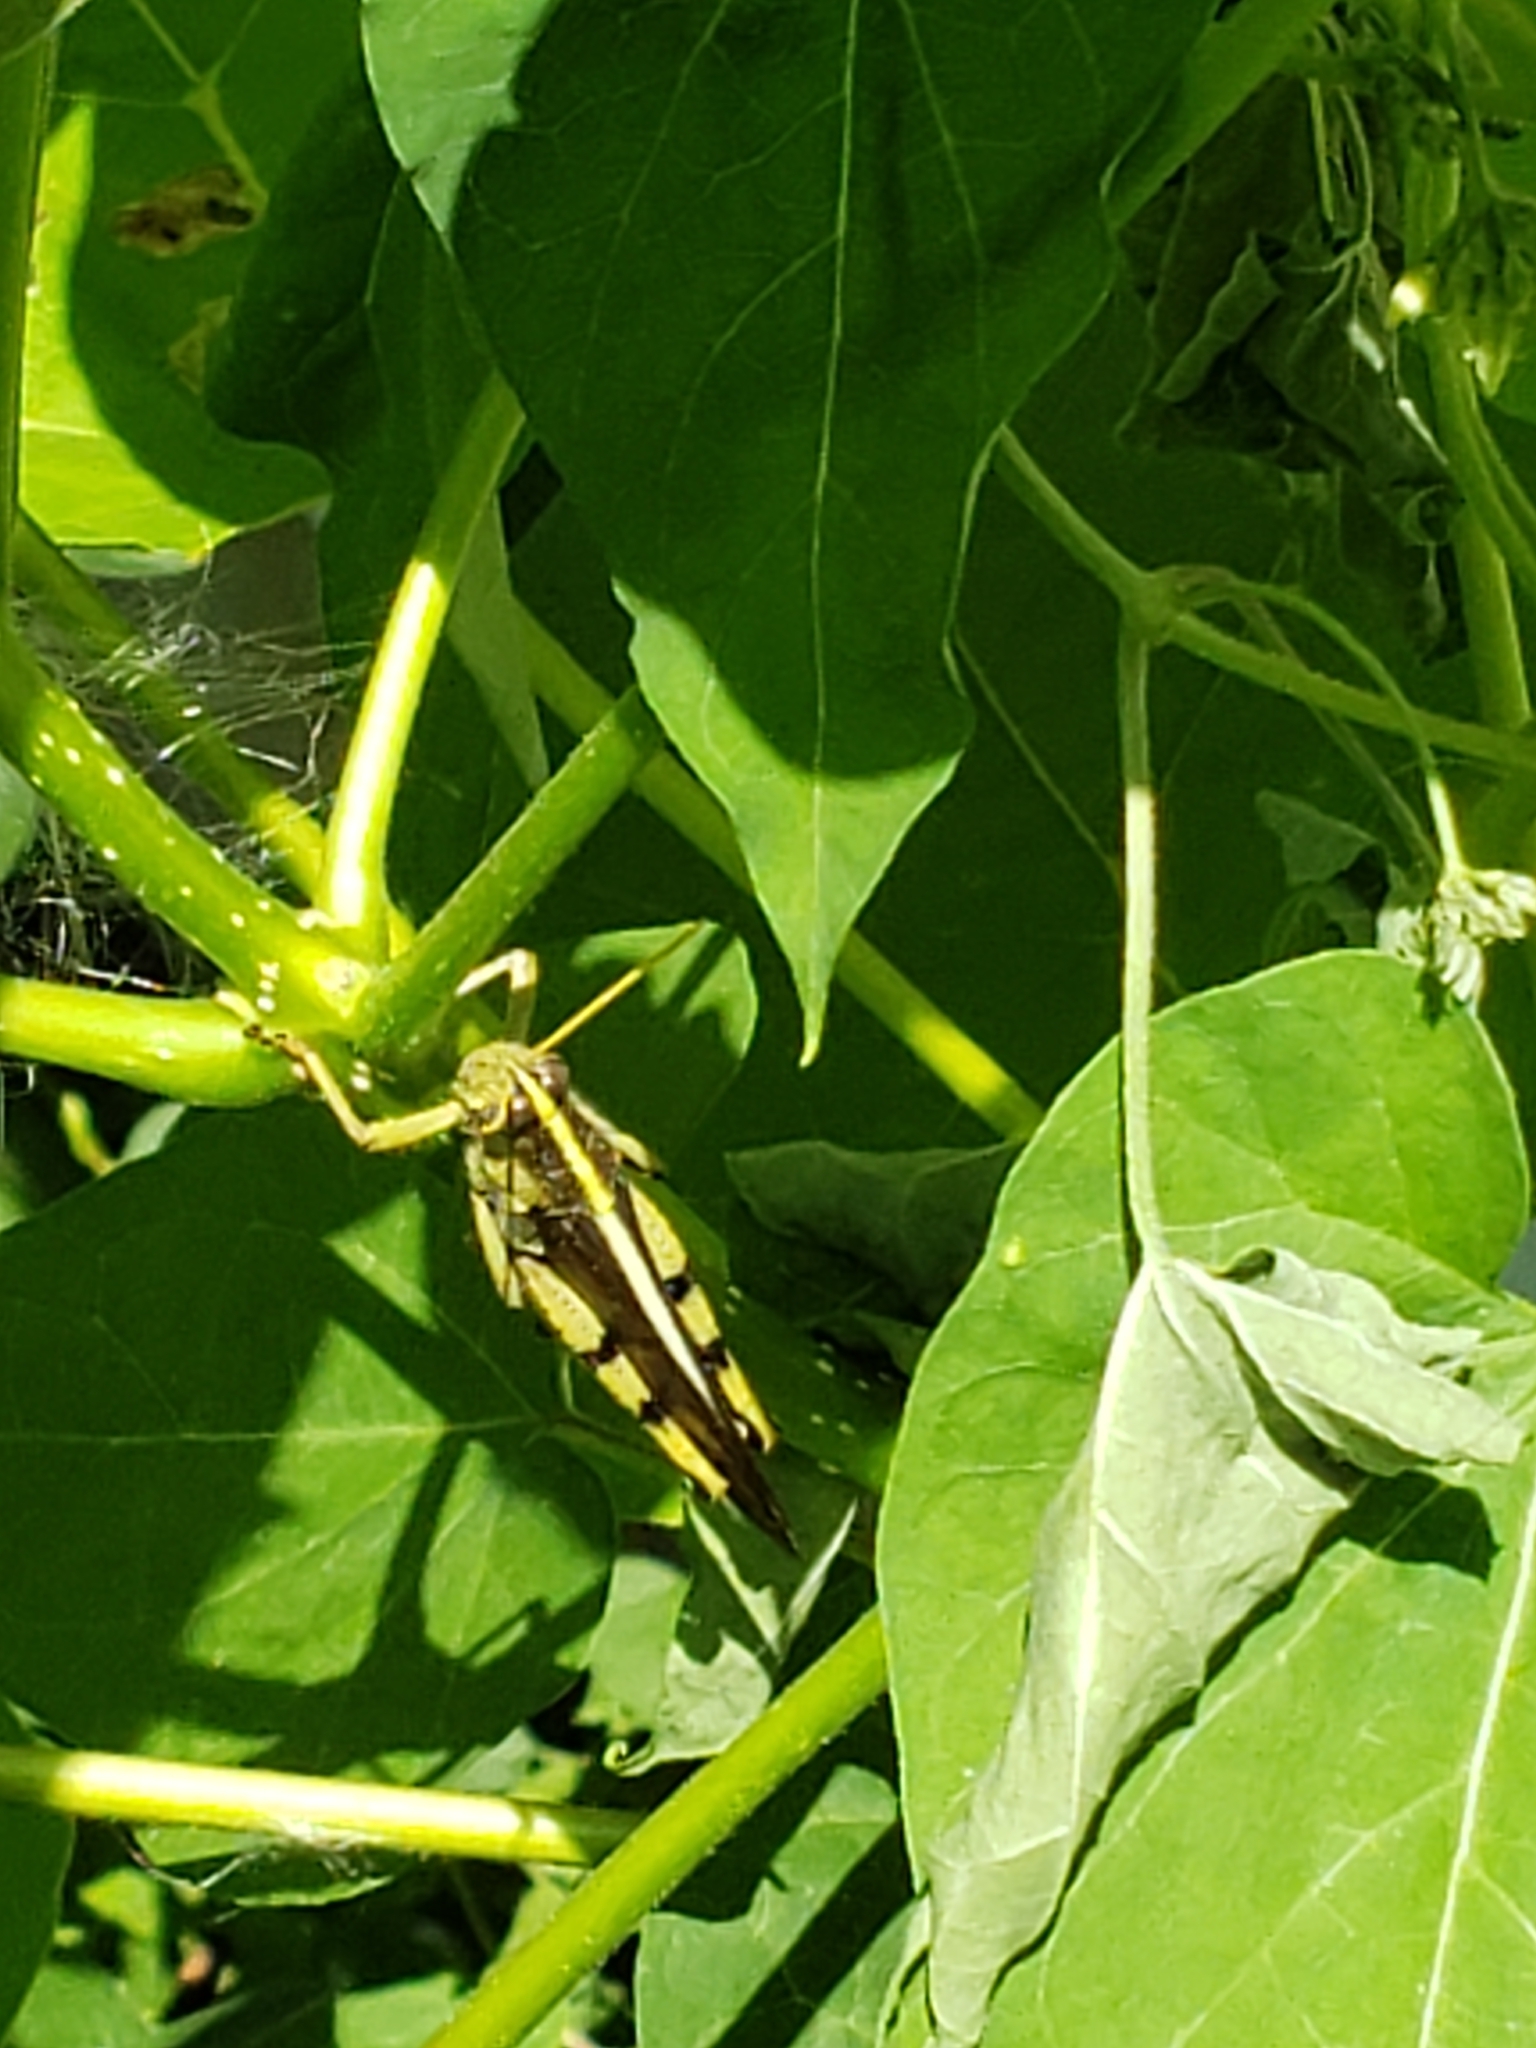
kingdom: Animalia
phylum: Arthropoda
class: Insecta
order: Orthoptera
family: Acrididae
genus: Schistocerca
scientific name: Schistocerca obscura
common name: Obscure bird grasshopper
